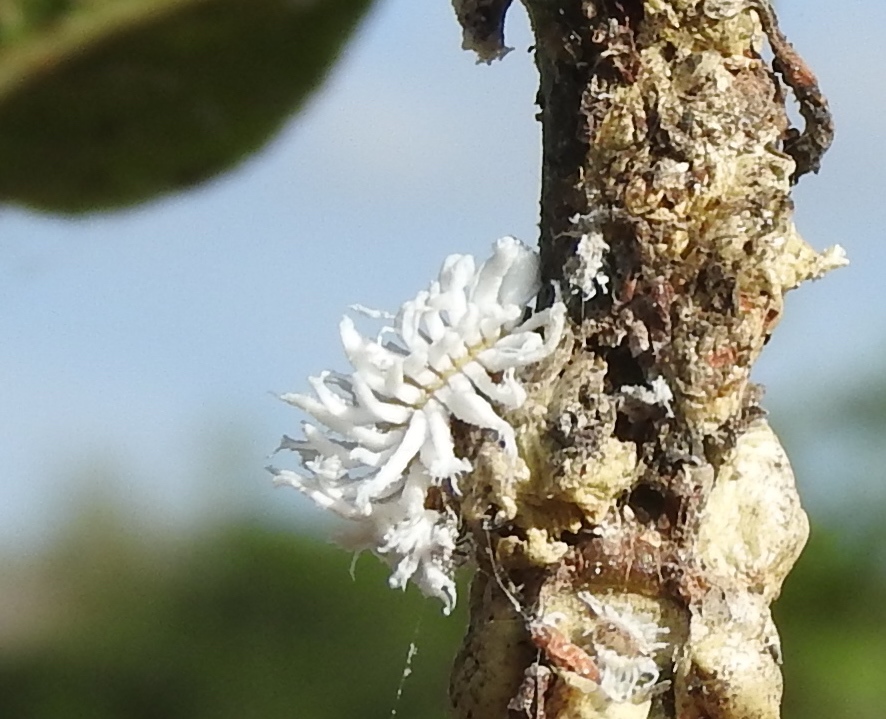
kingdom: Animalia
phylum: Arthropoda
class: Insecta
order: Coleoptera
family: Coccinellidae
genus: Azya
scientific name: Azya orbigera
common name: Ladybird beetle
